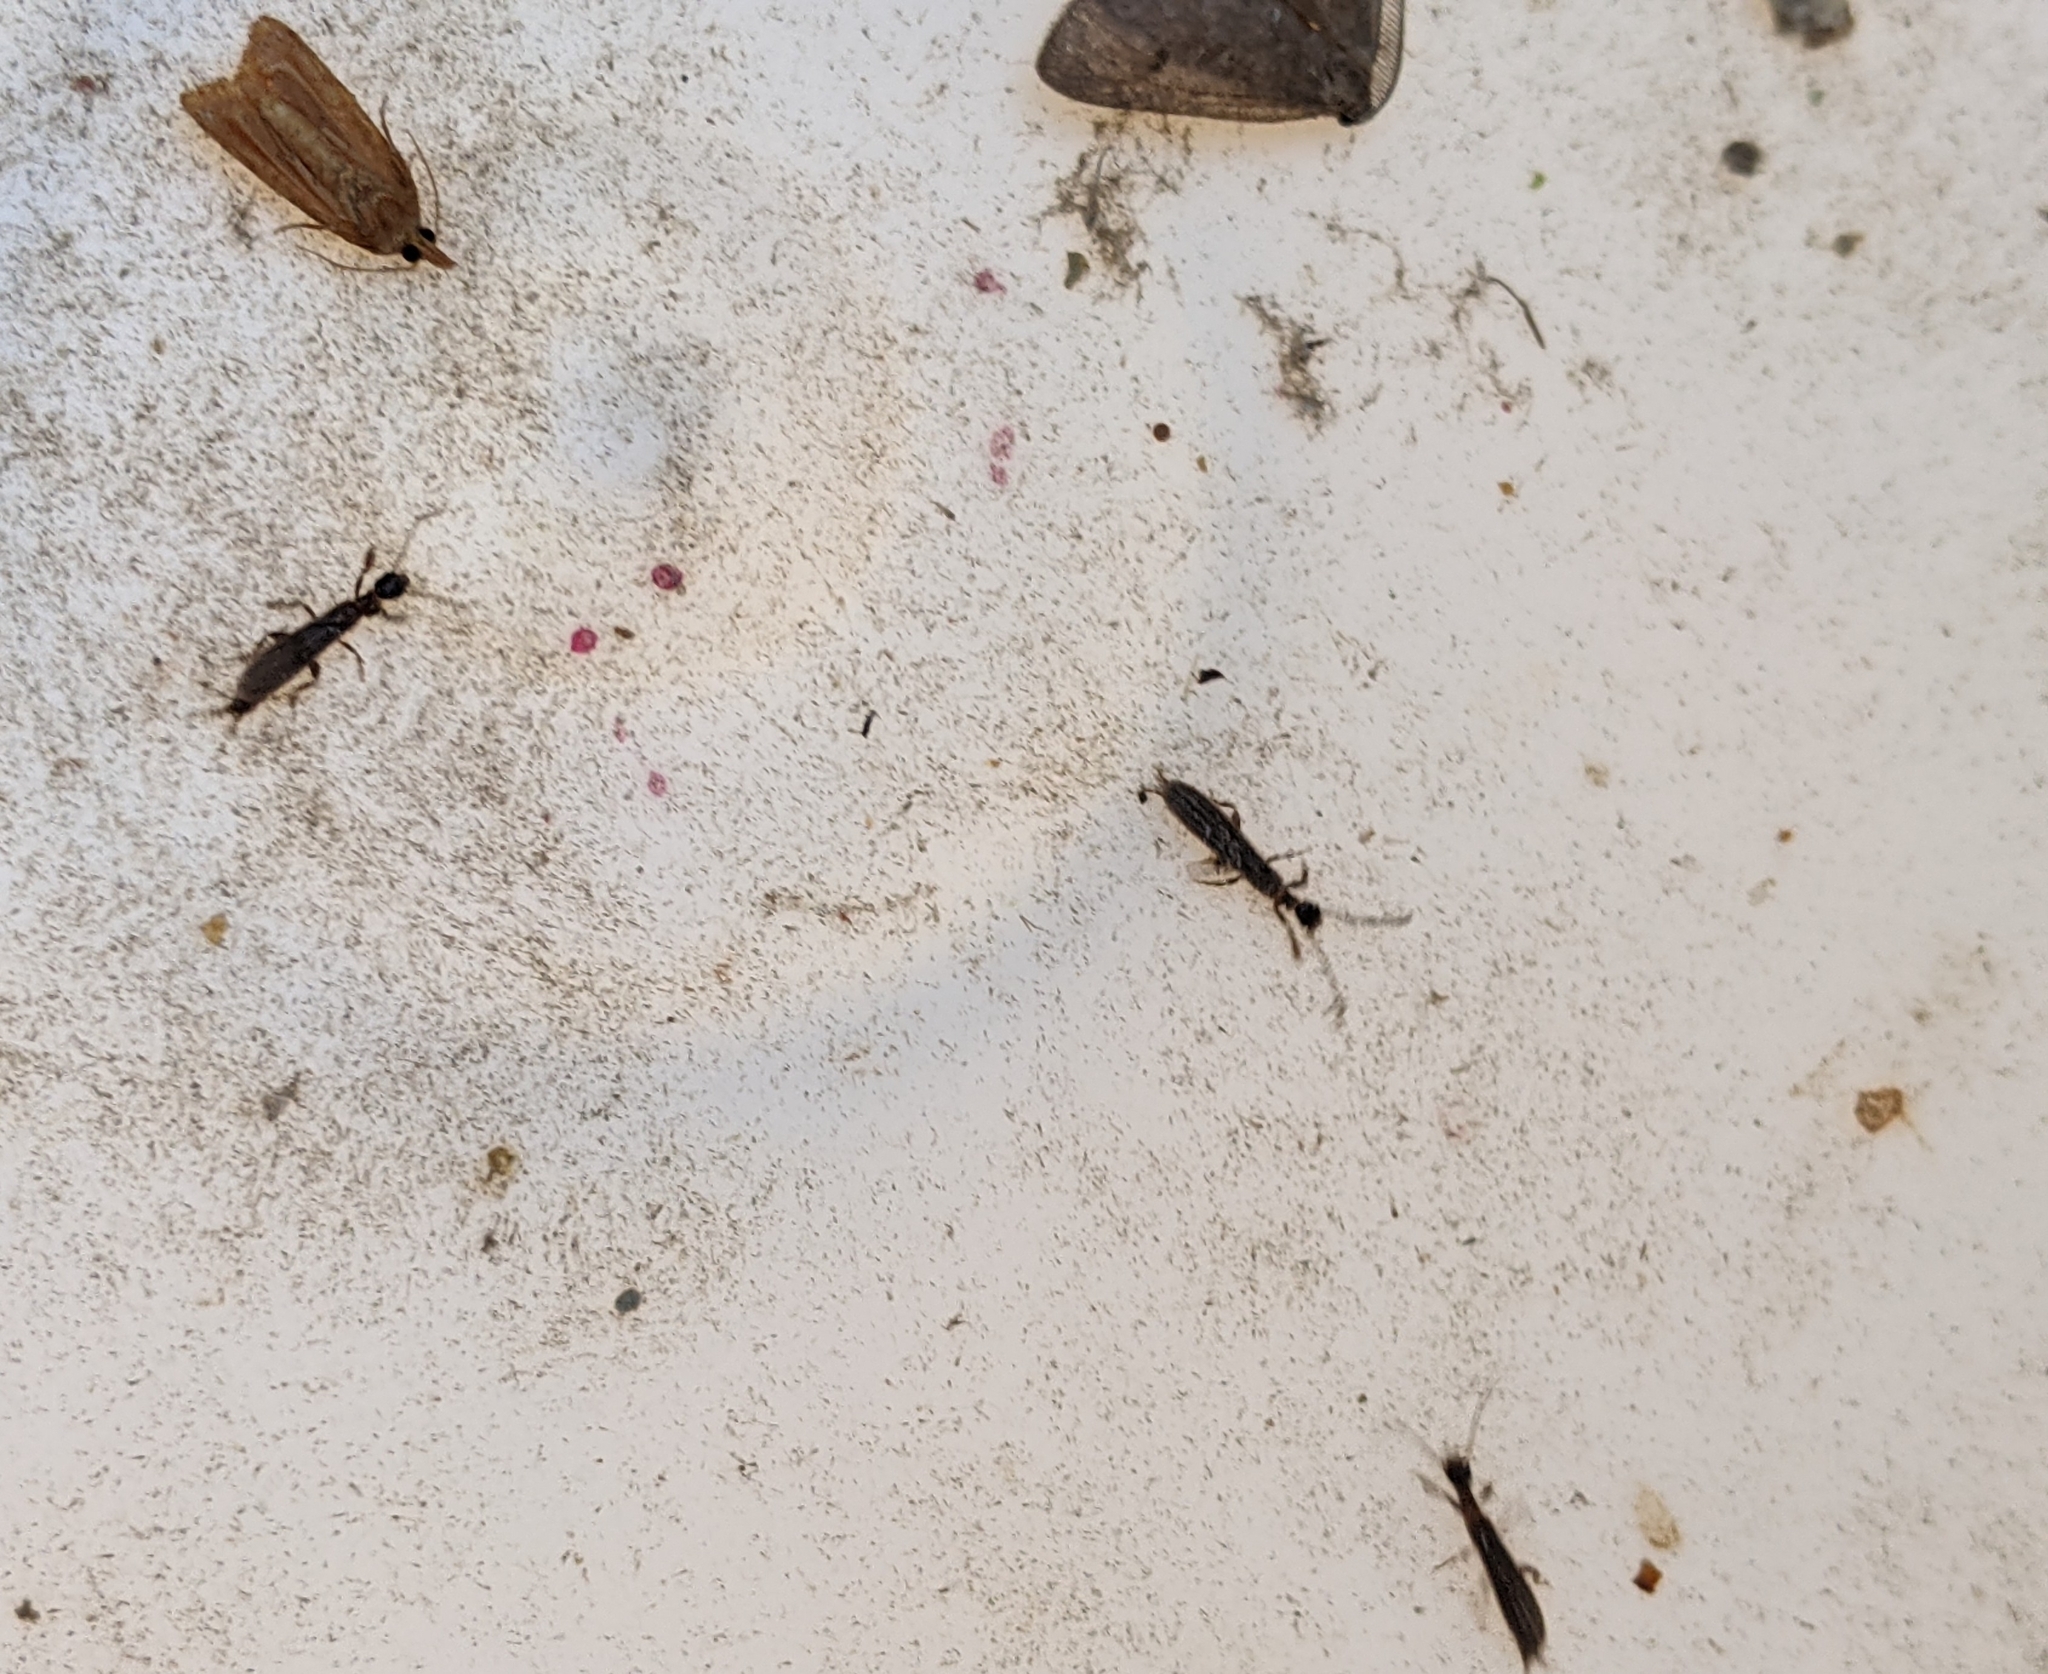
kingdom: Animalia
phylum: Arthropoda
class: Insecta
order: Embioptera
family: Oligotomidae
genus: Oligotoma
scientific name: Oligotoma nigra
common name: Black webspinner
